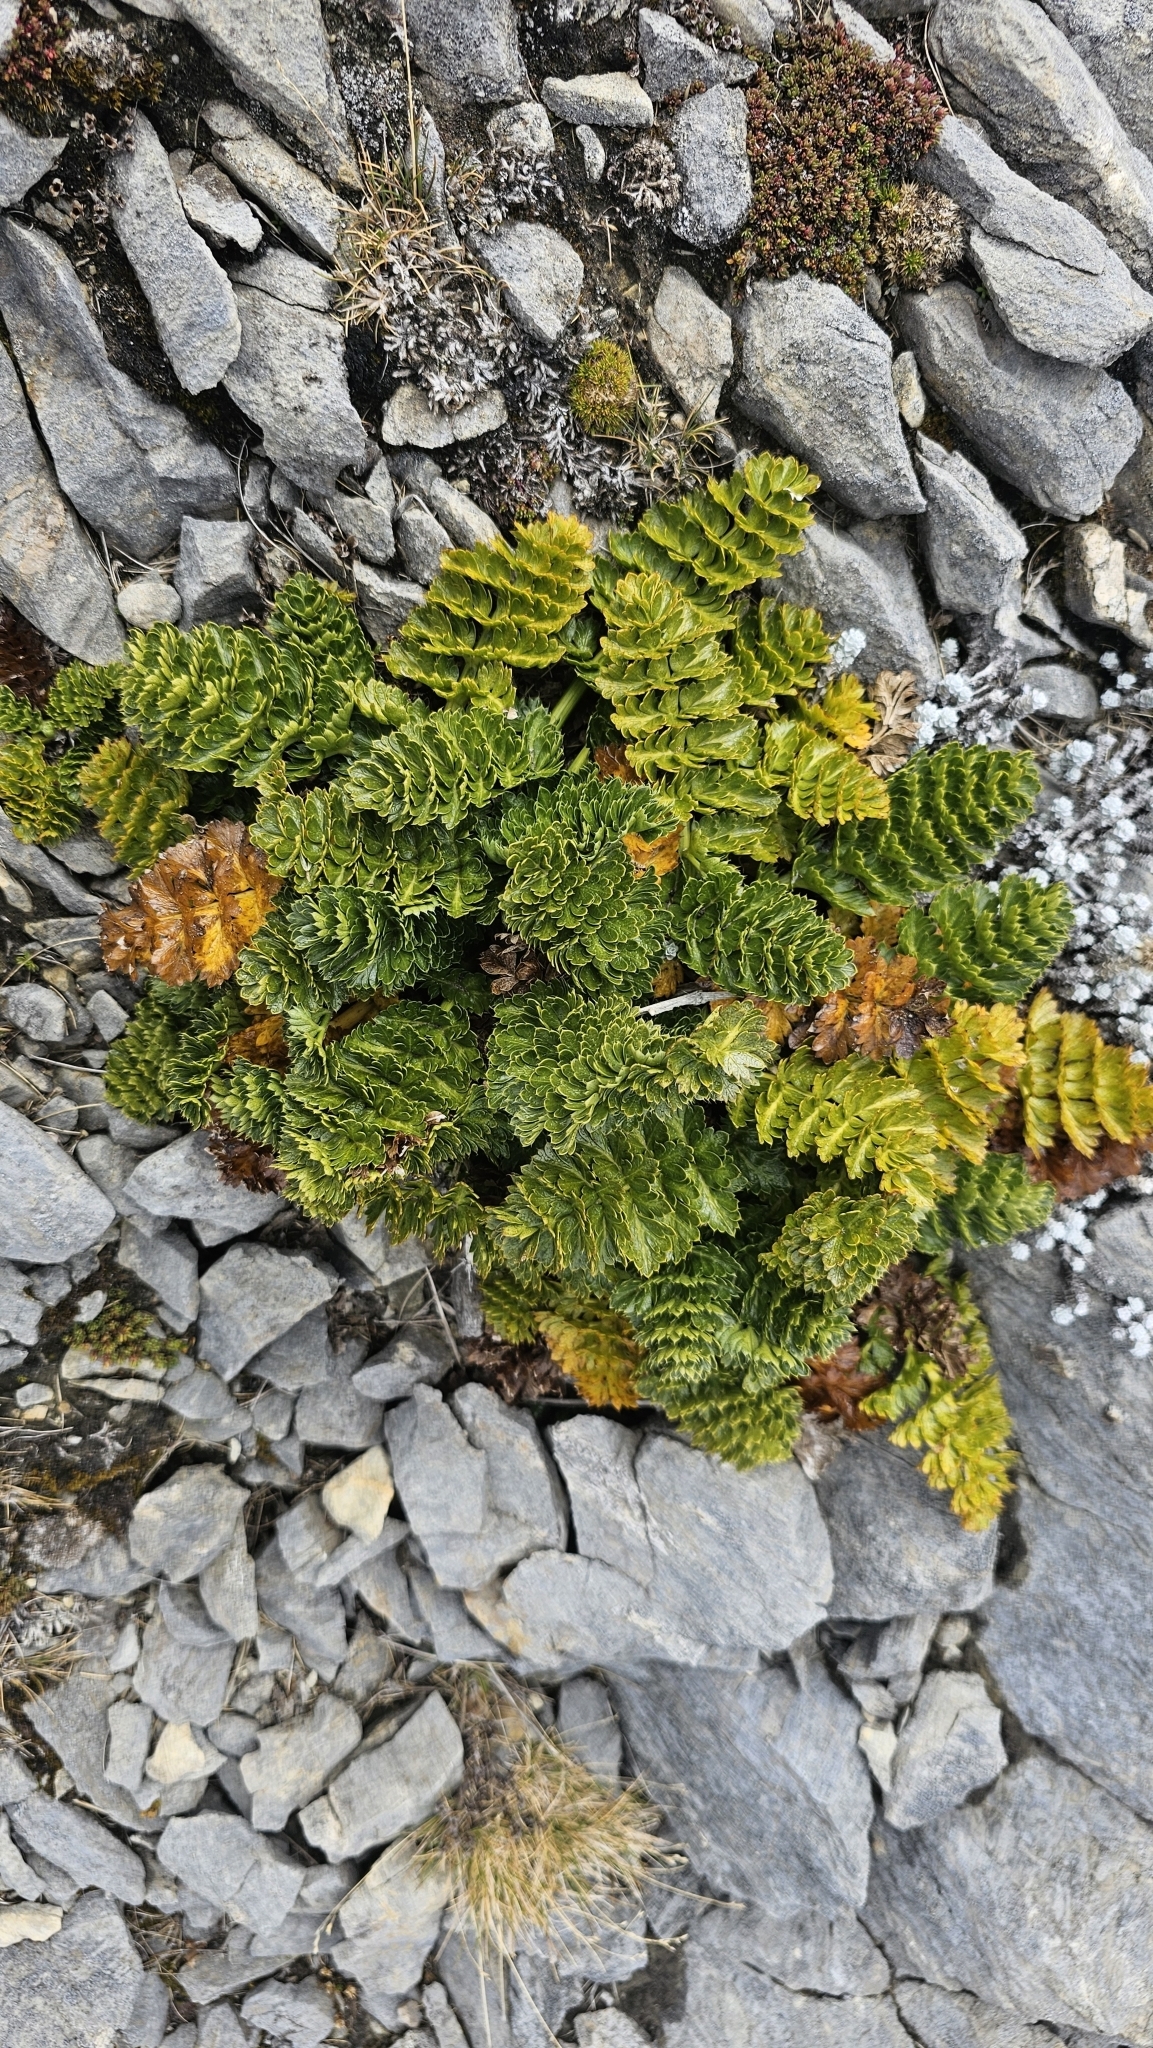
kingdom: Plantae
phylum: Tracheophyta
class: Magnoliopsida
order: Apiales
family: Apiaceae
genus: Anisotome
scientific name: Anisotome pilifera
